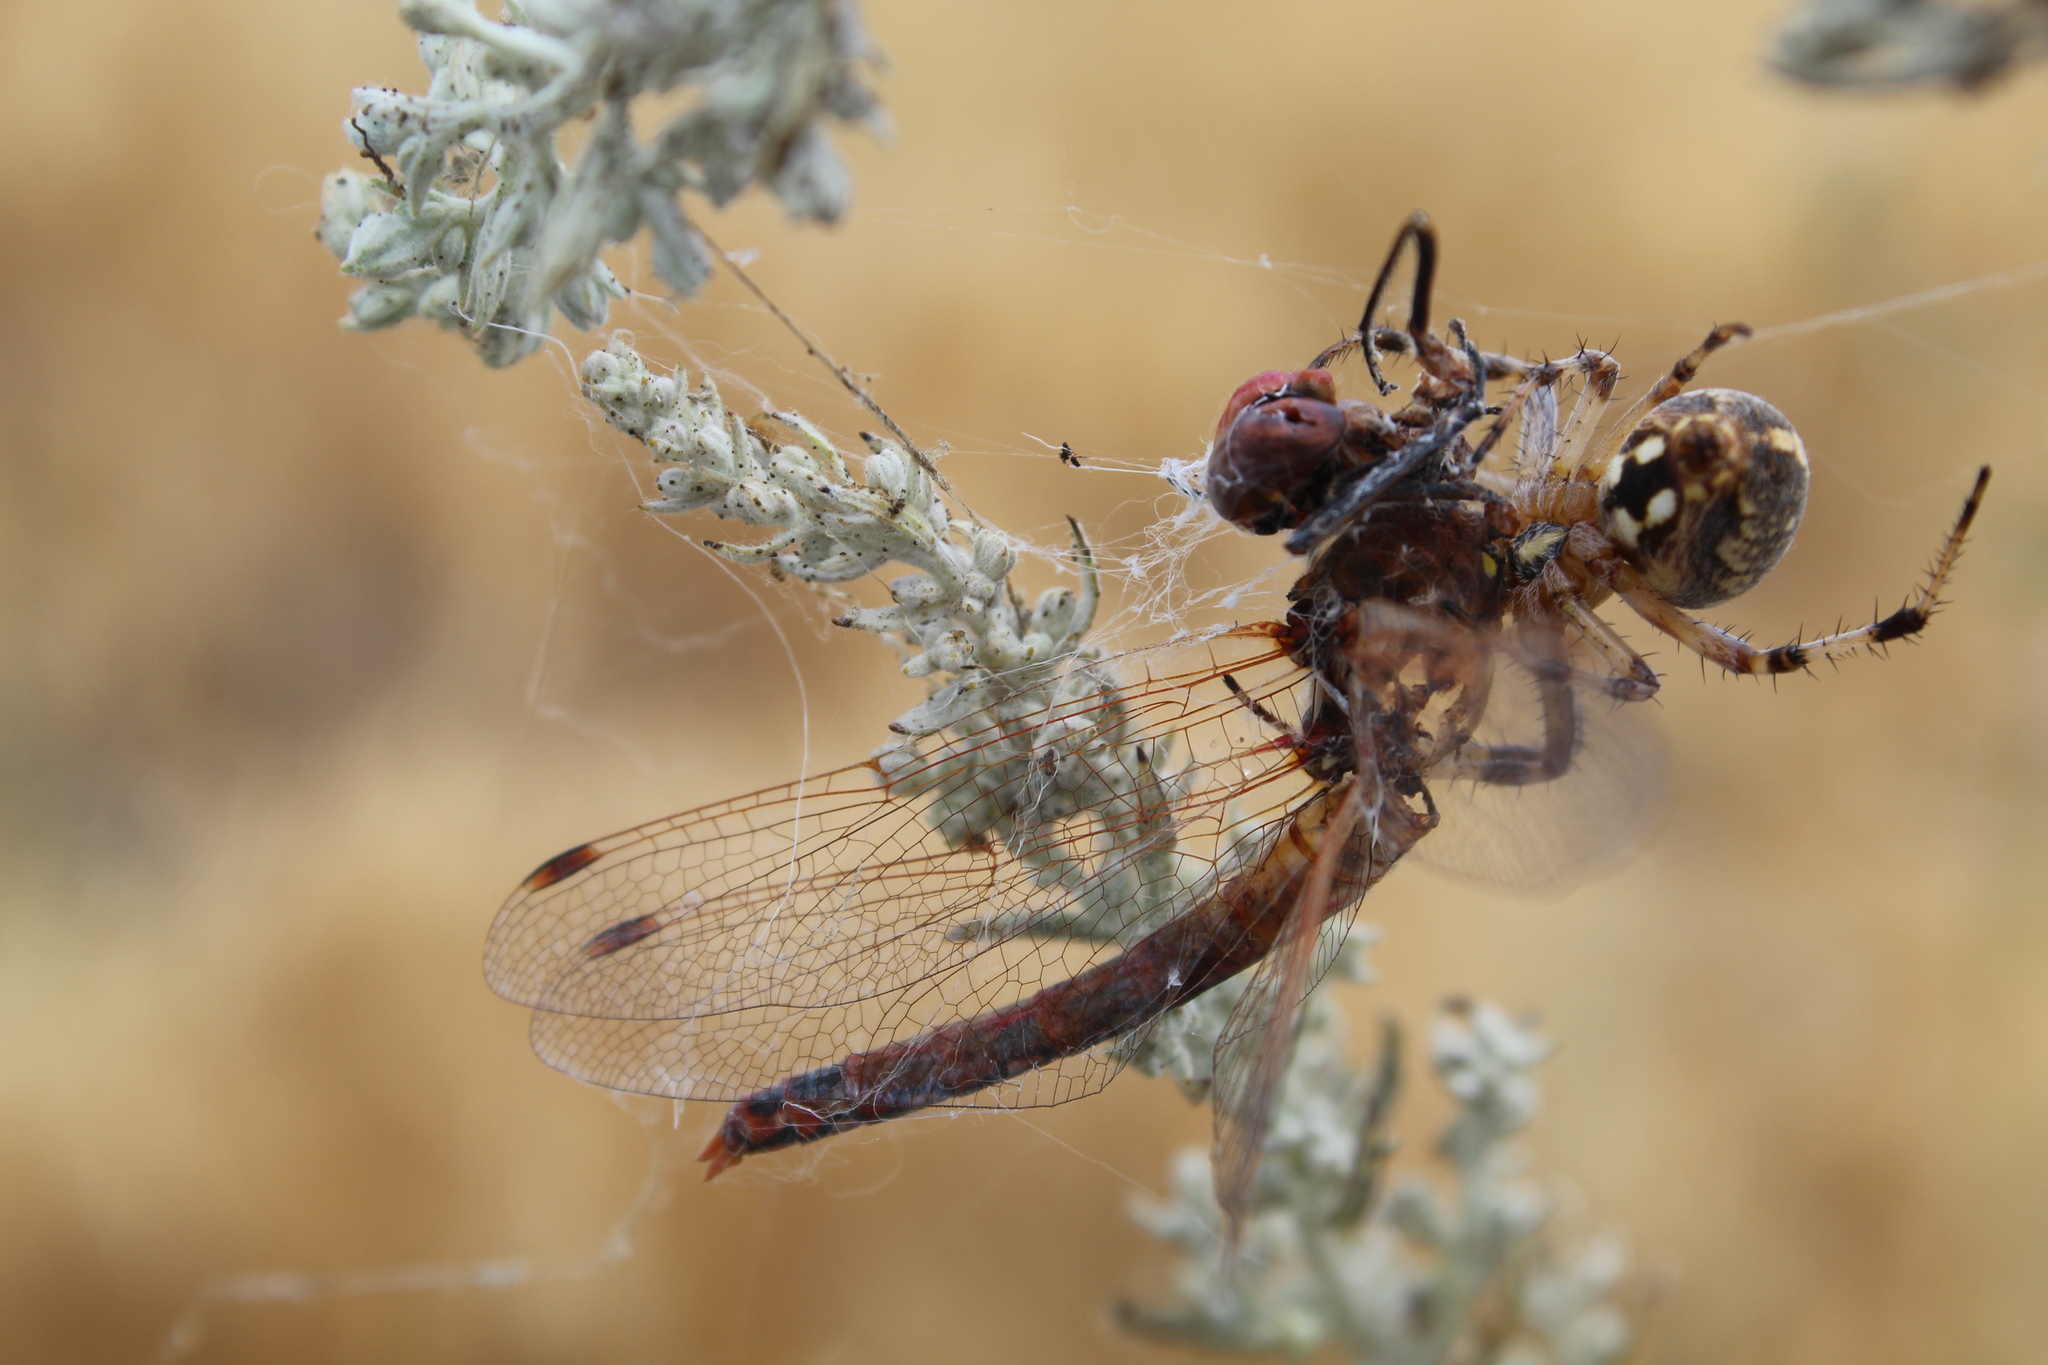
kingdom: Animalia
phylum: Arthropoda
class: Insecta
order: Odonata
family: Libellulidae
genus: Sympetrum
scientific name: Sympetrum corruptum
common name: Variegated meadowhawk
